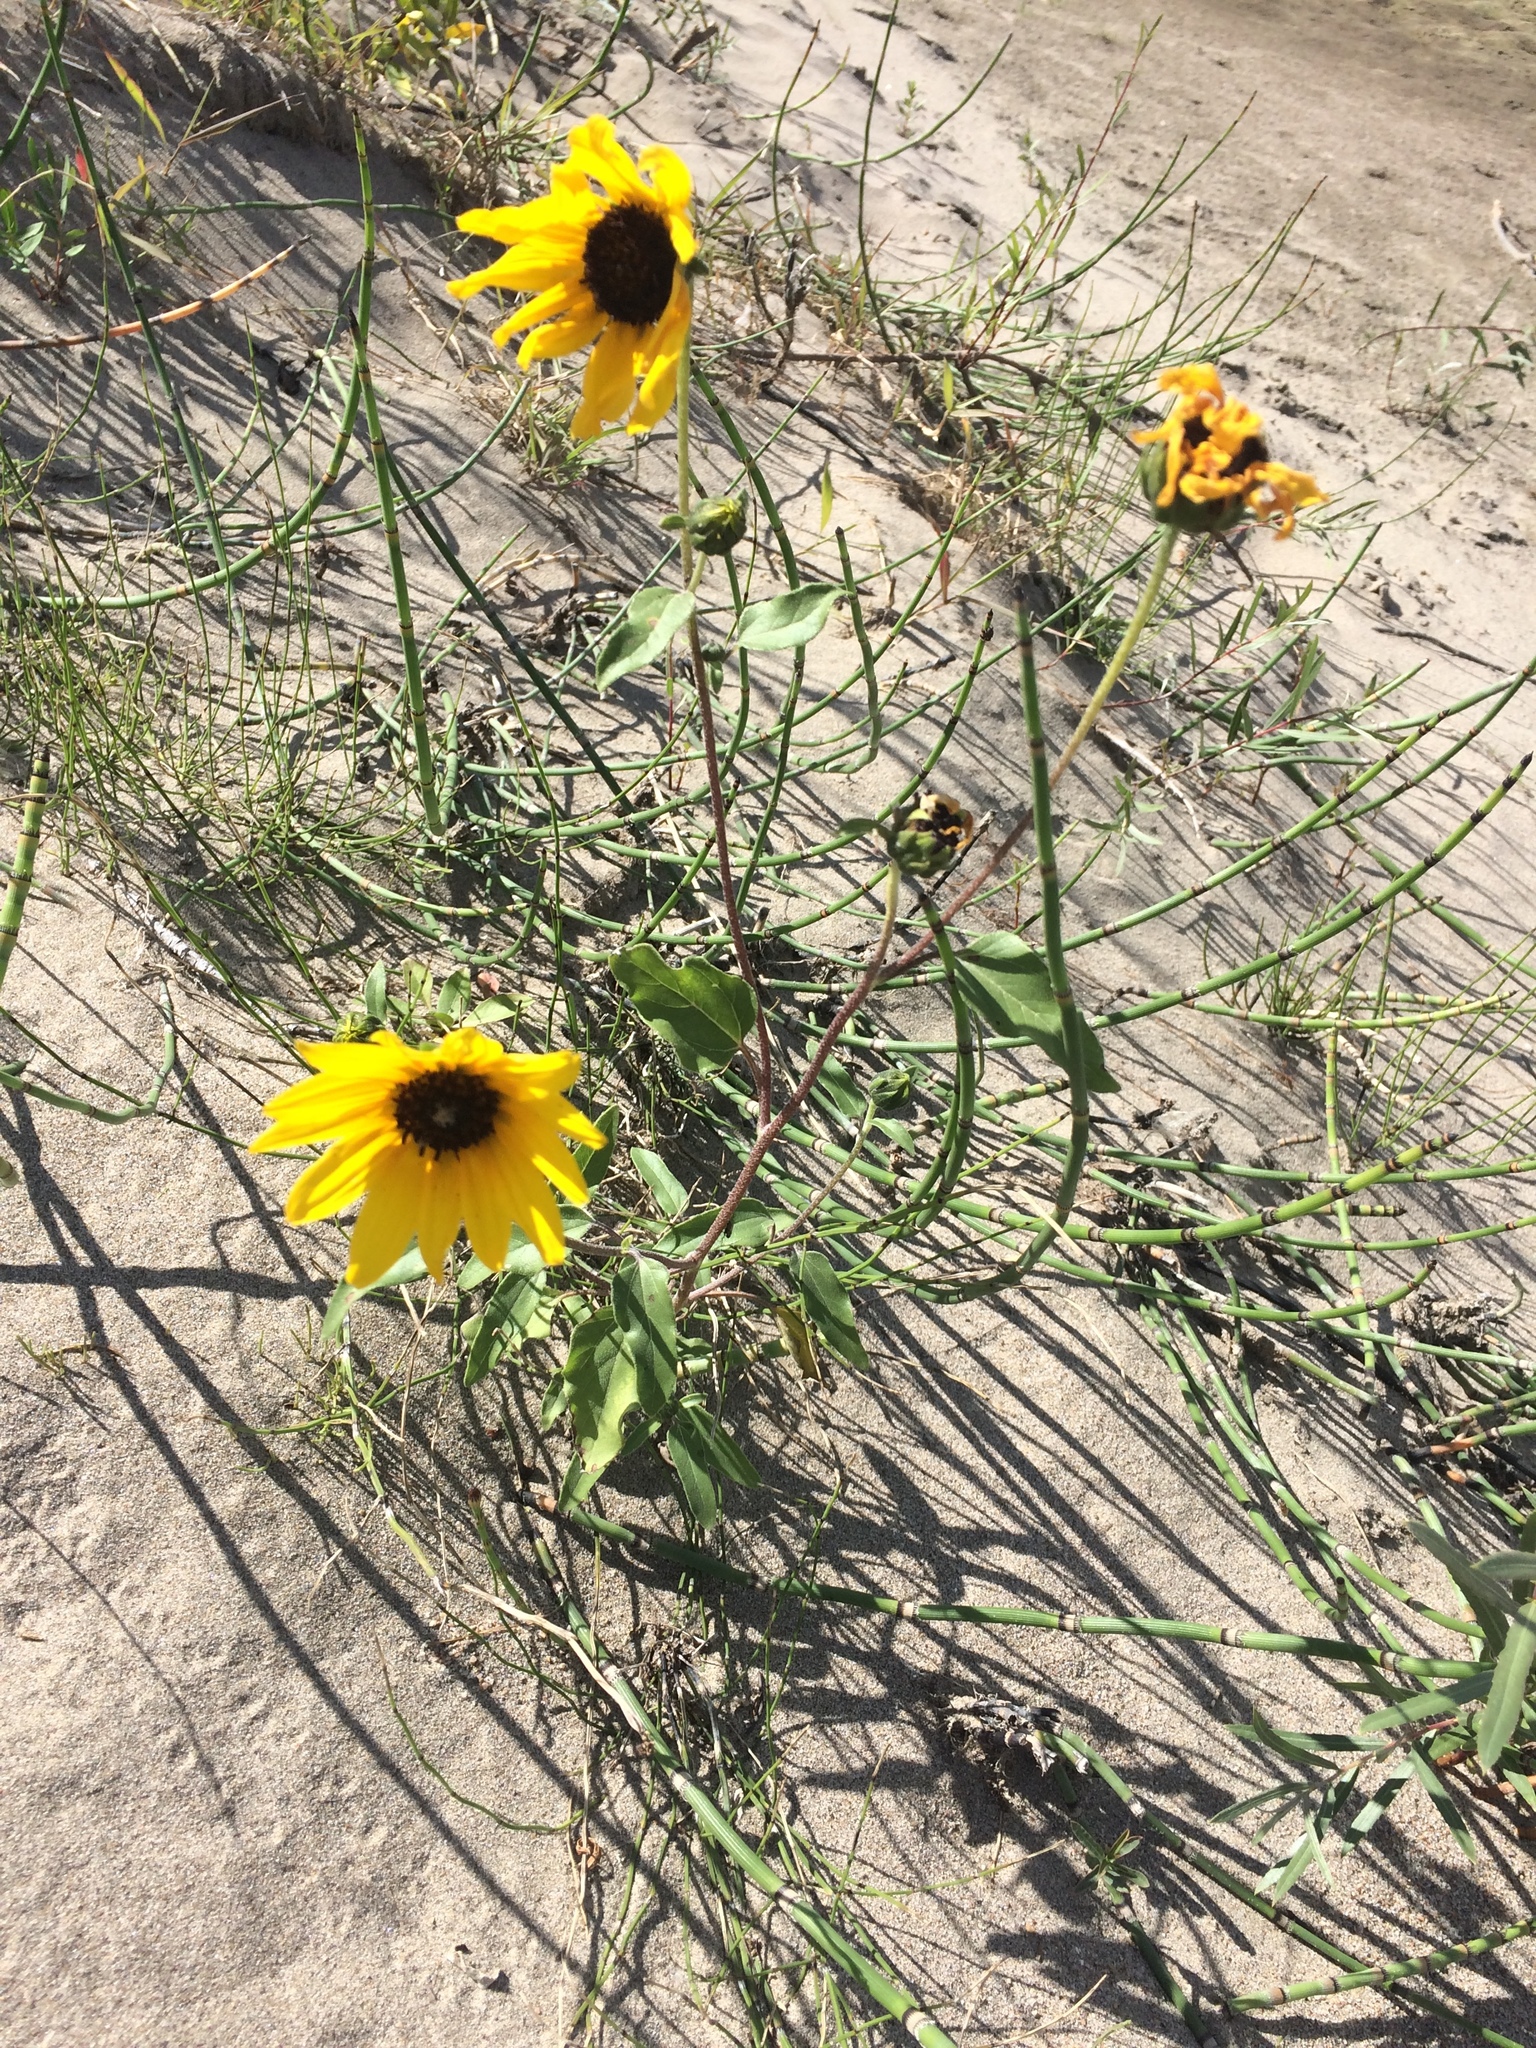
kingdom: Plantae
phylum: Tracheophyta
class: Magnoliopsida
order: Asterales
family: Asteraceae
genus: Helianthus
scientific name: Helianthus petiolaris
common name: Lesser sunflower
